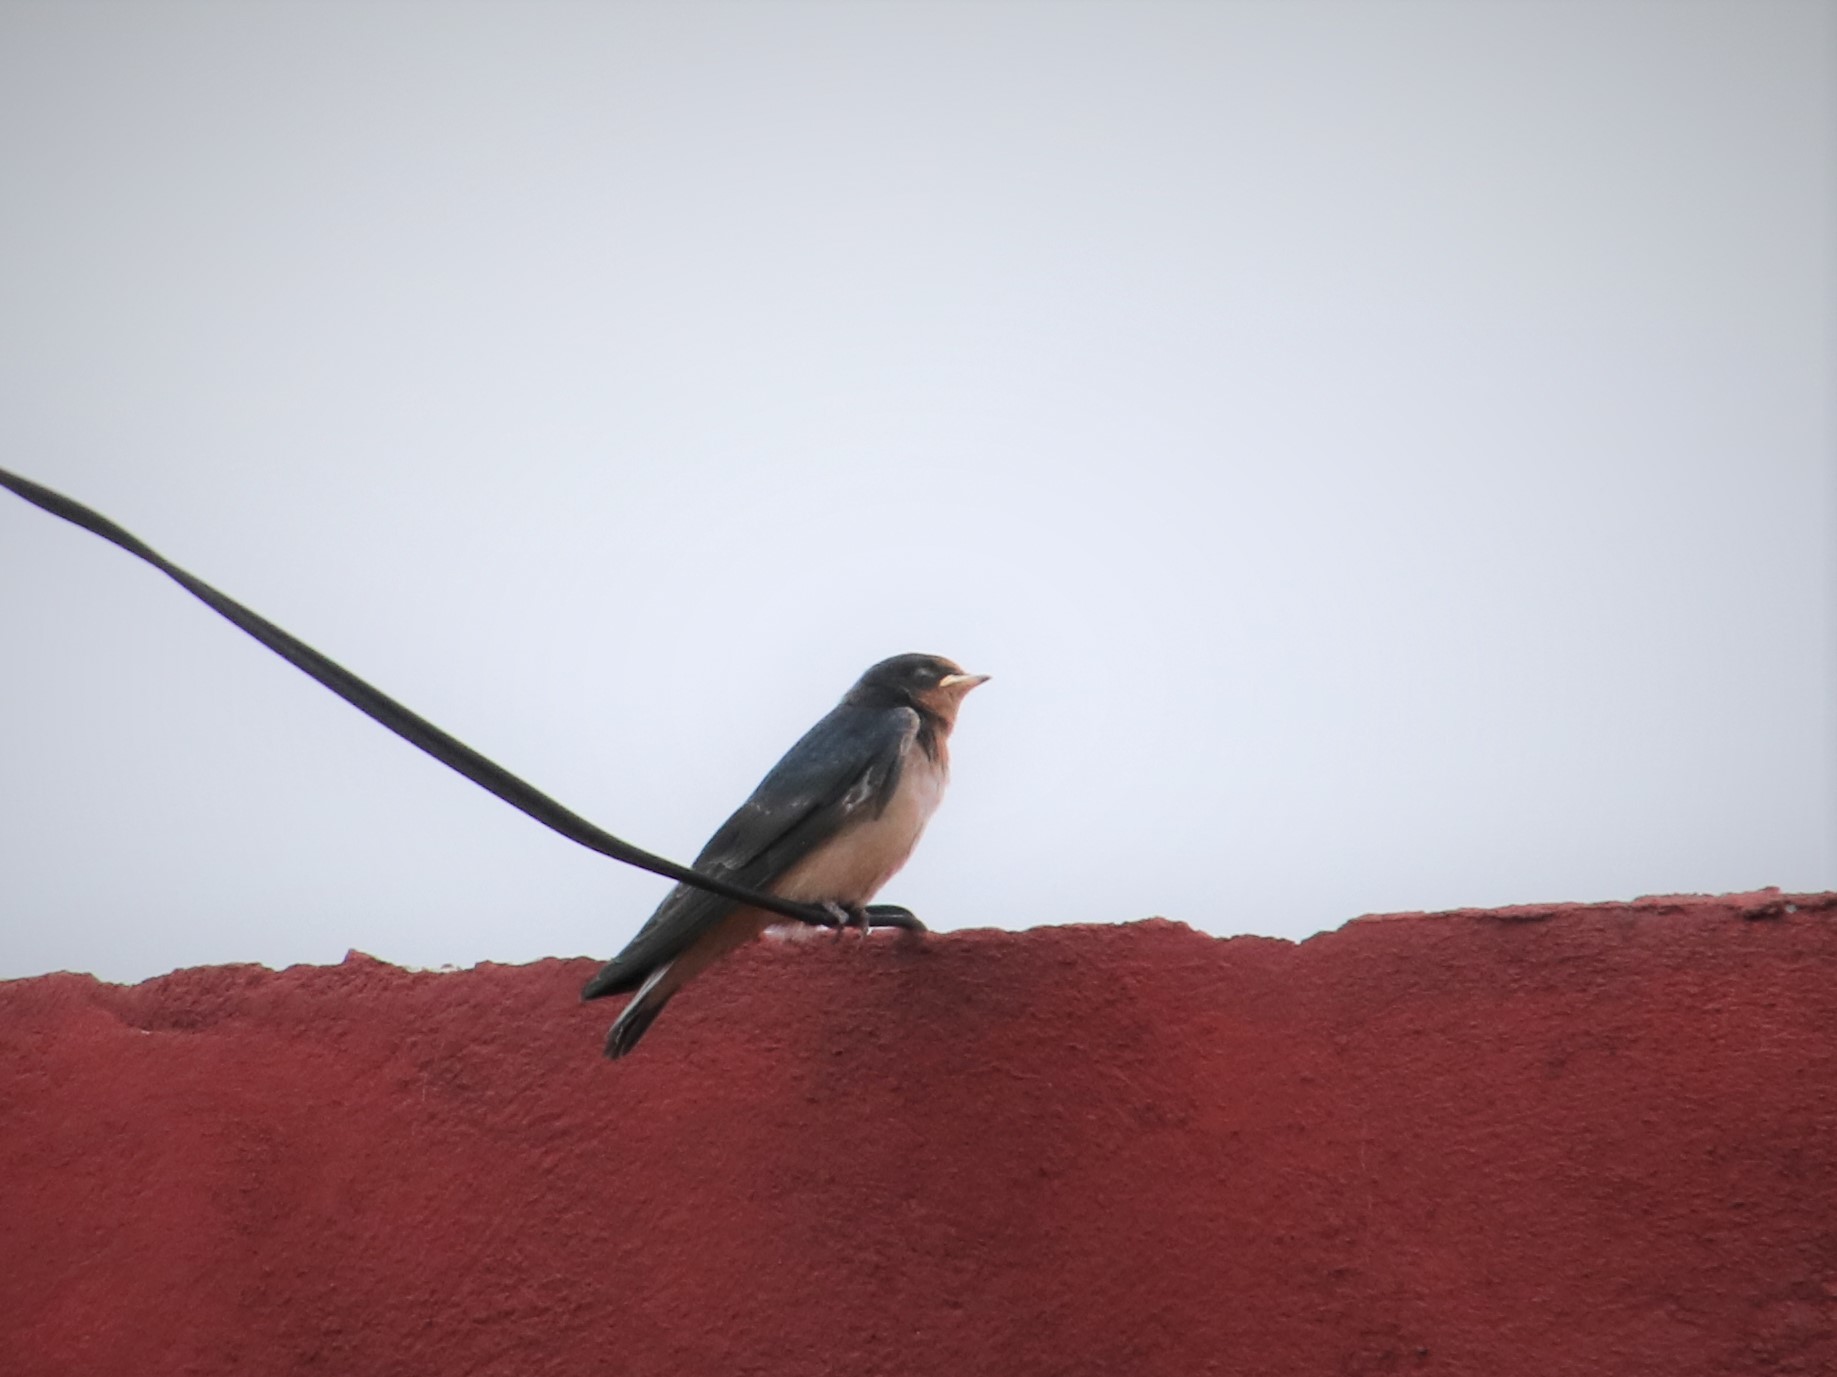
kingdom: Animalia
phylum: Chordata
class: Aves
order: Passeriformes
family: Hirundinidae
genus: Hirundo
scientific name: Hirundo rustica
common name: Barn swallow
